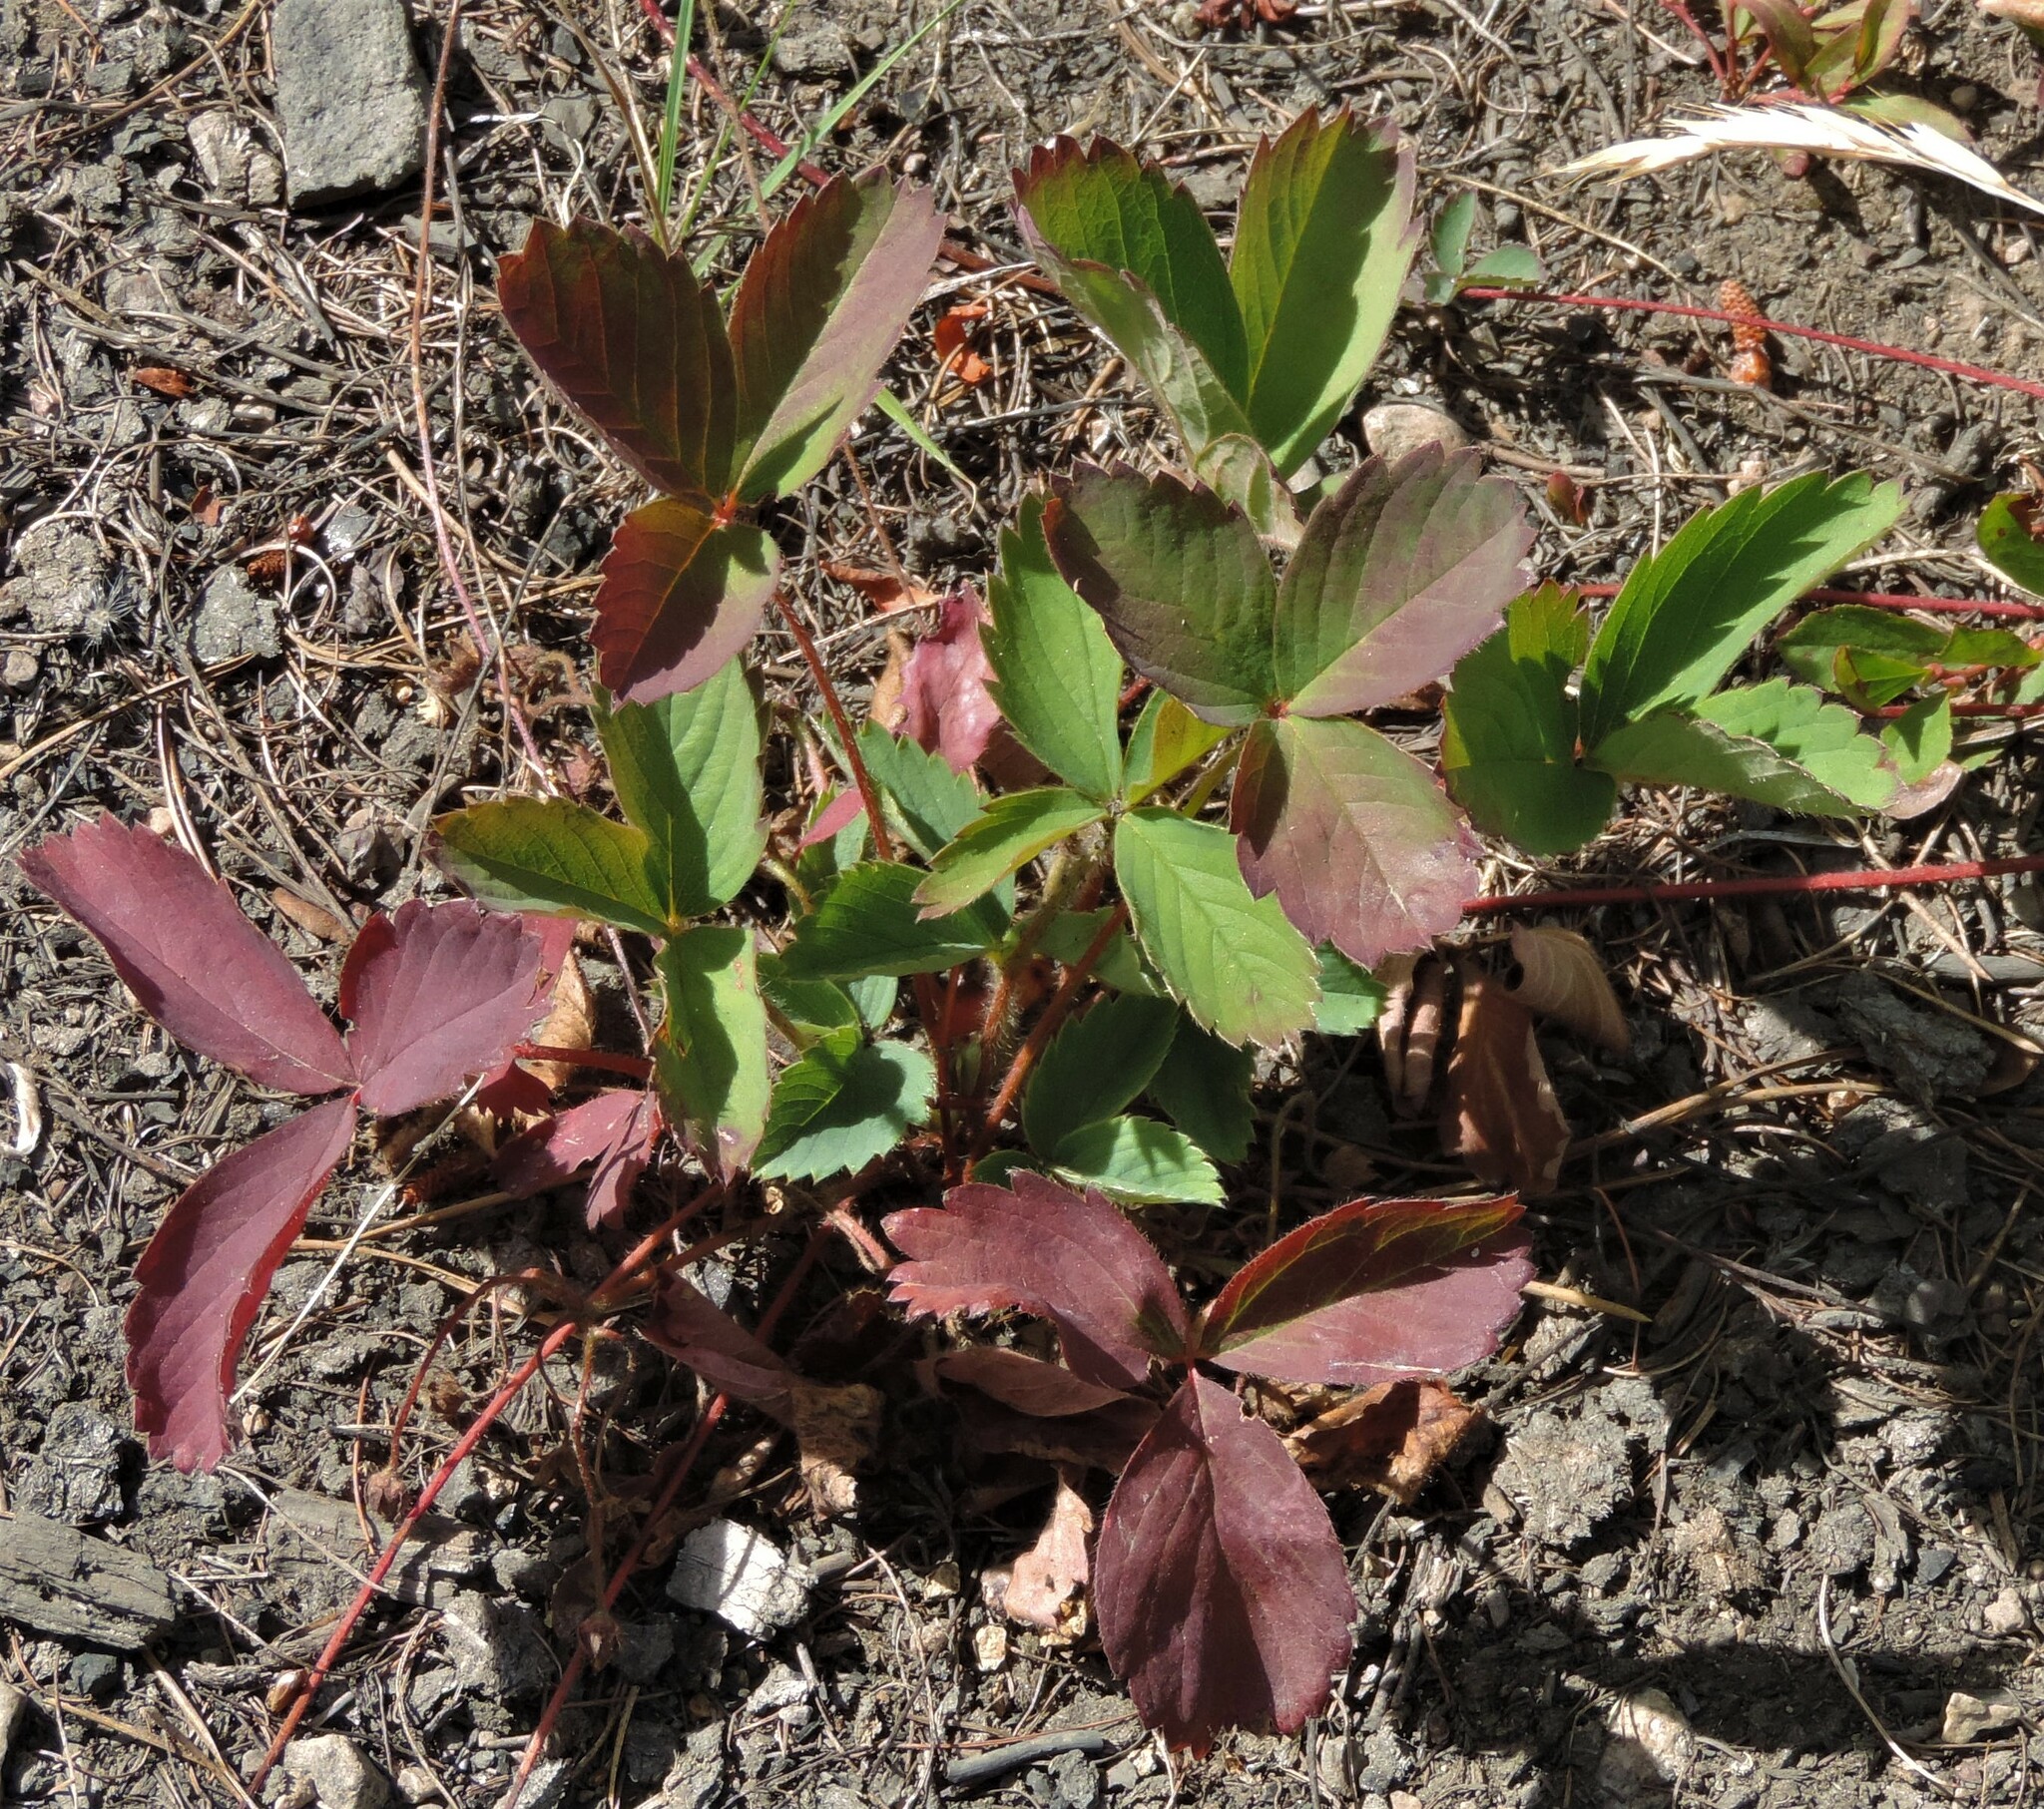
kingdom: Plantae
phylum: Tracheophyta
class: Magnoliopsida
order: Rosales
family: Rosaceae
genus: Fragaria
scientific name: Fragaria virginiana
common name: Thickleaved wild strawberry
